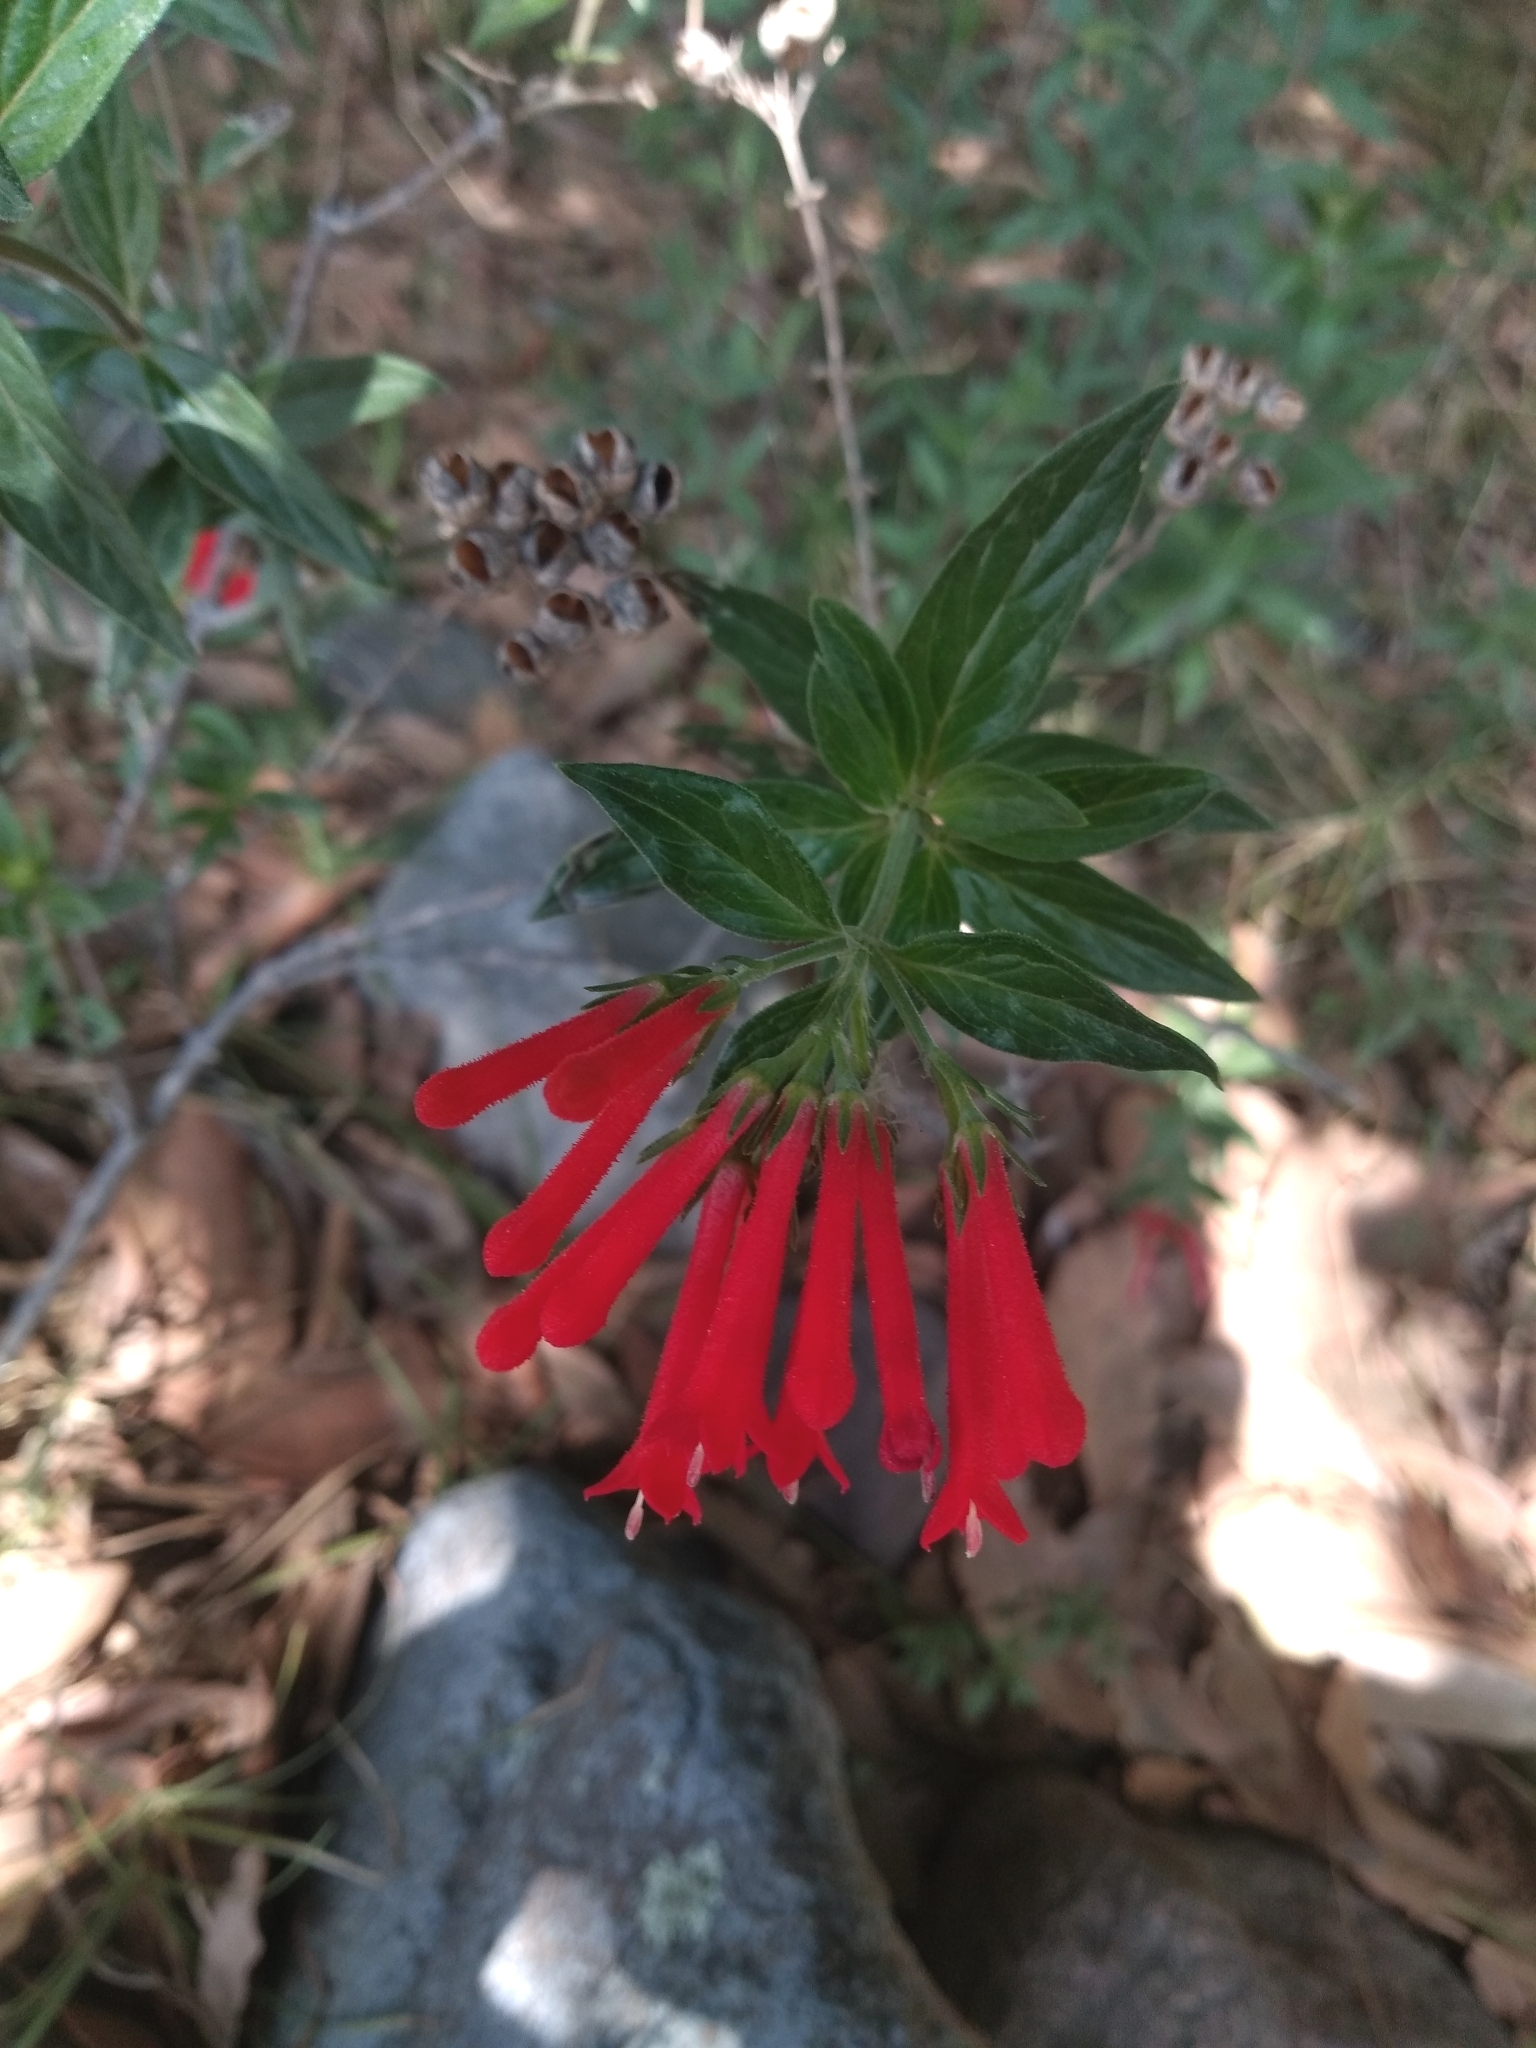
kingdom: Plantae
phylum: Tracheophyta
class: Magnoliopsida
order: Gentianales
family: Rubiaceae
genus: Bouvardia
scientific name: Bouvardia ternifolia
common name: Scarlet bouvardia
